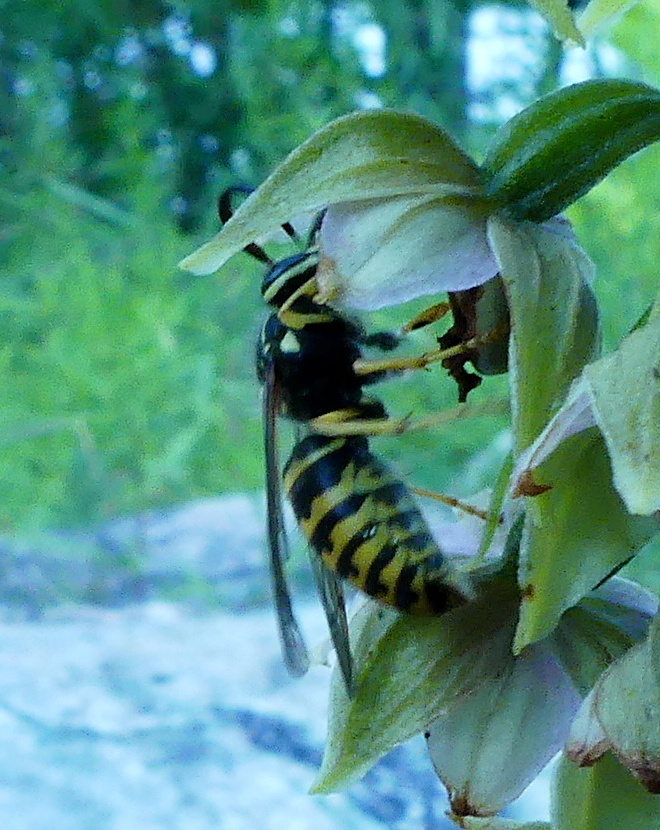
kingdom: Animalia
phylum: Arthropoda
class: Insecta
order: Hymenoptera
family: Vespidae
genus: Dolichovespula
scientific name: Dolichovespula arenaria
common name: Aerial yellowjacket
